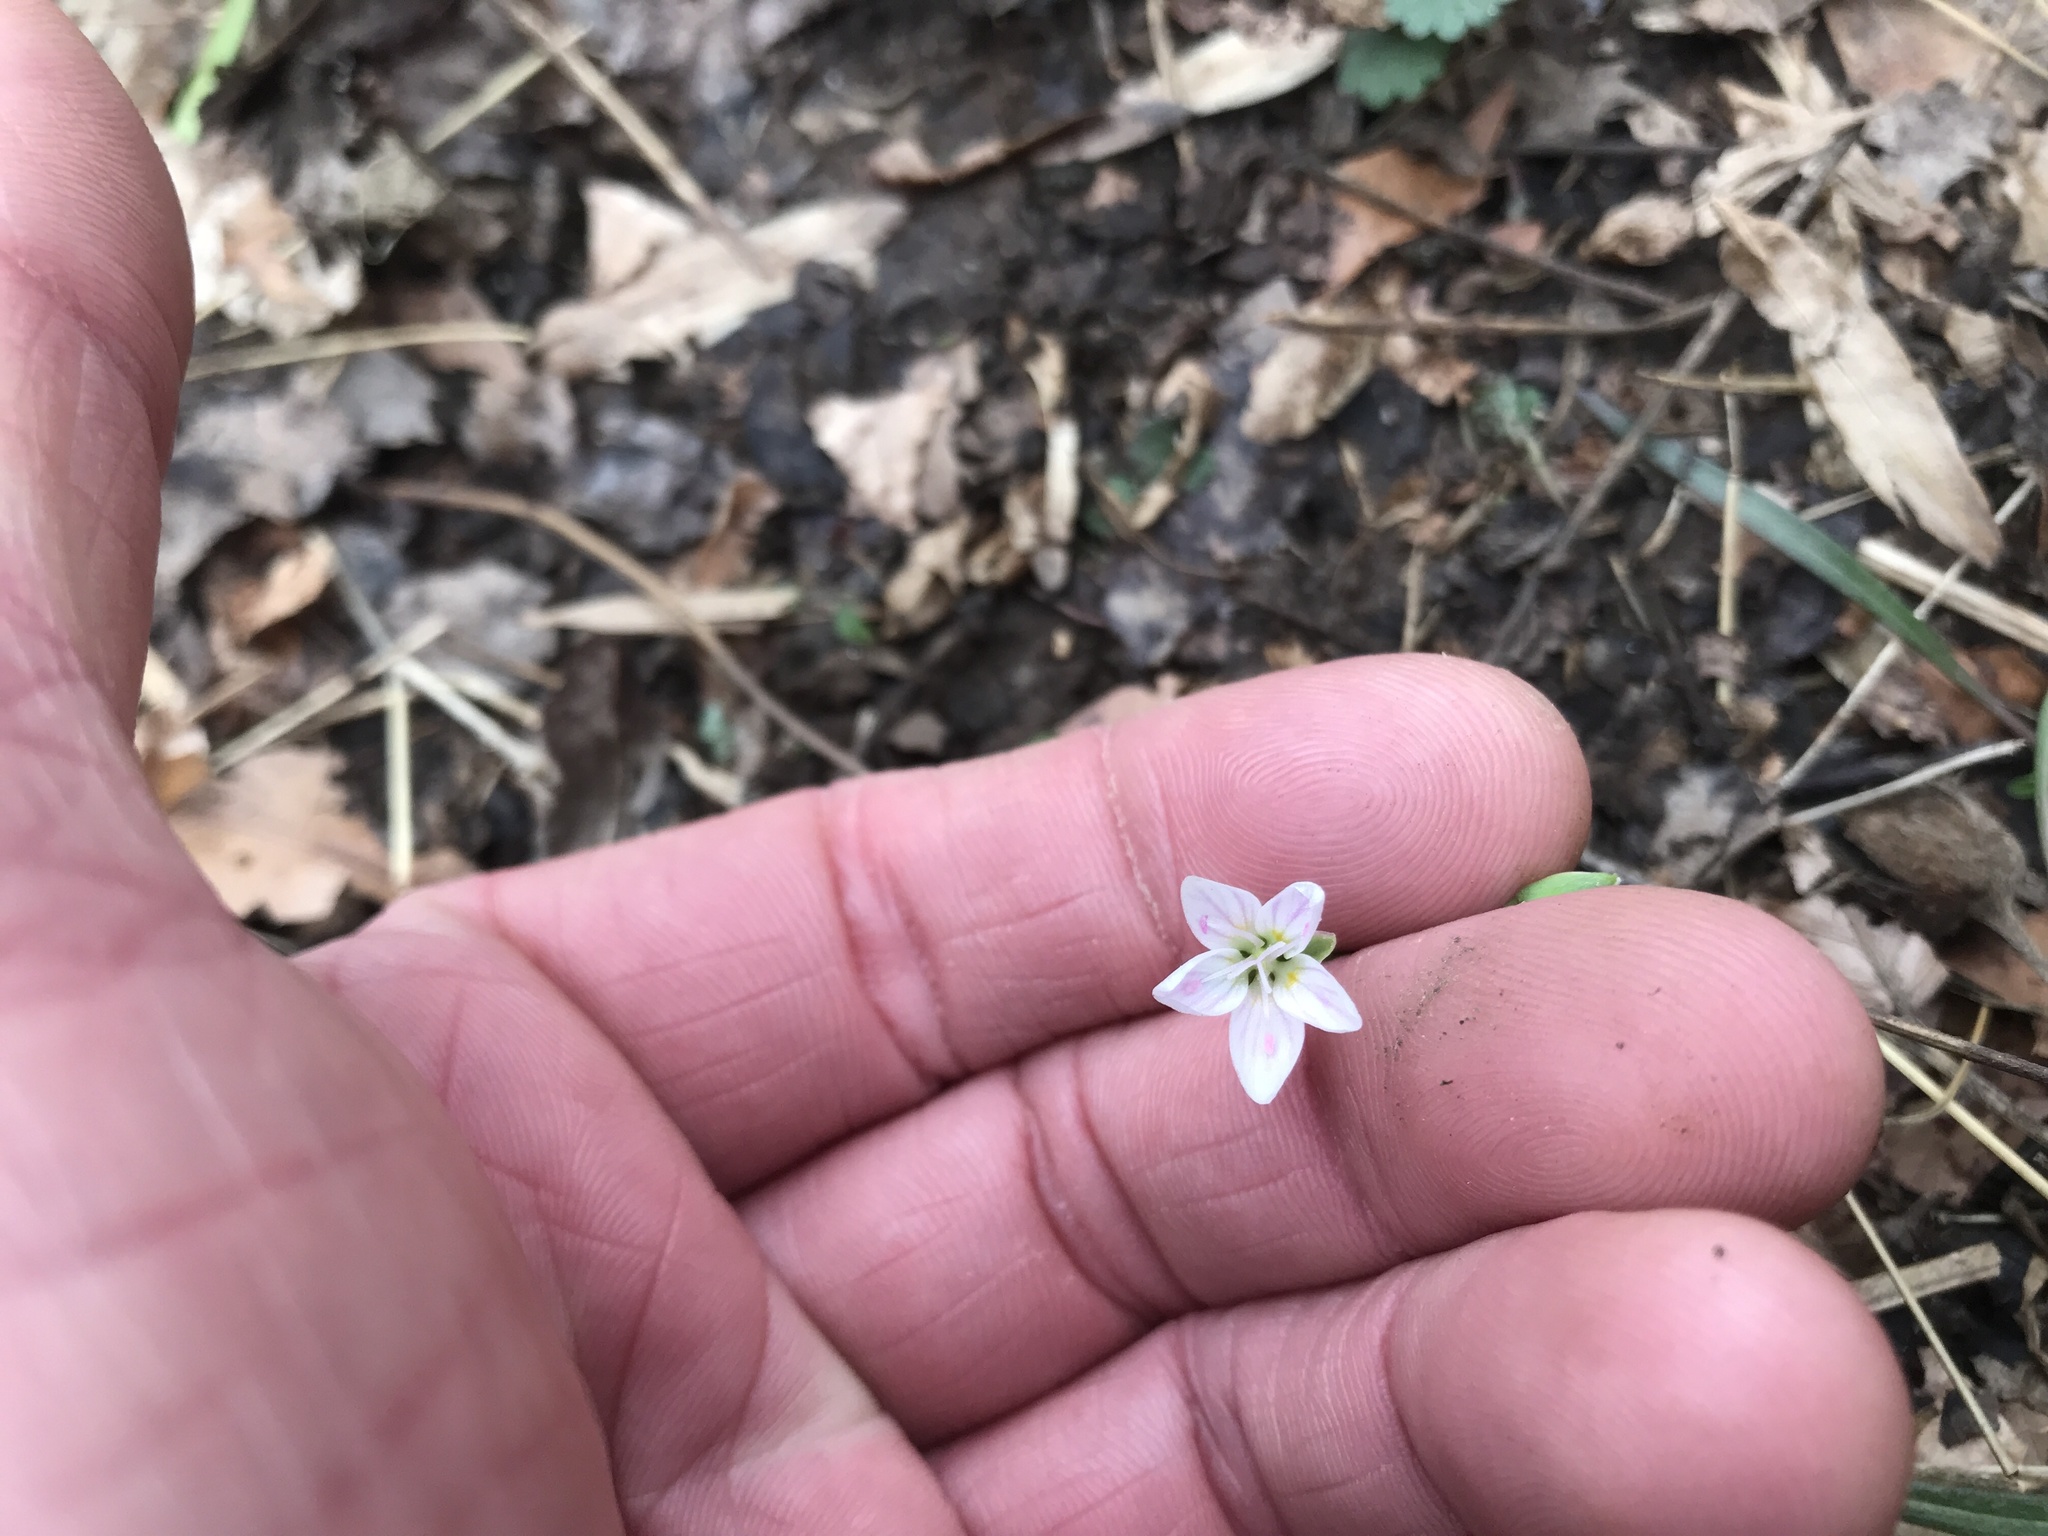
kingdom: Plantae
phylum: Tracheophyta
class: Magnoliopsida
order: Caryophyllales
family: Montiaceae
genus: Claytonia
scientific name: Claytonia virginica
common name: Virginia springbeauty
